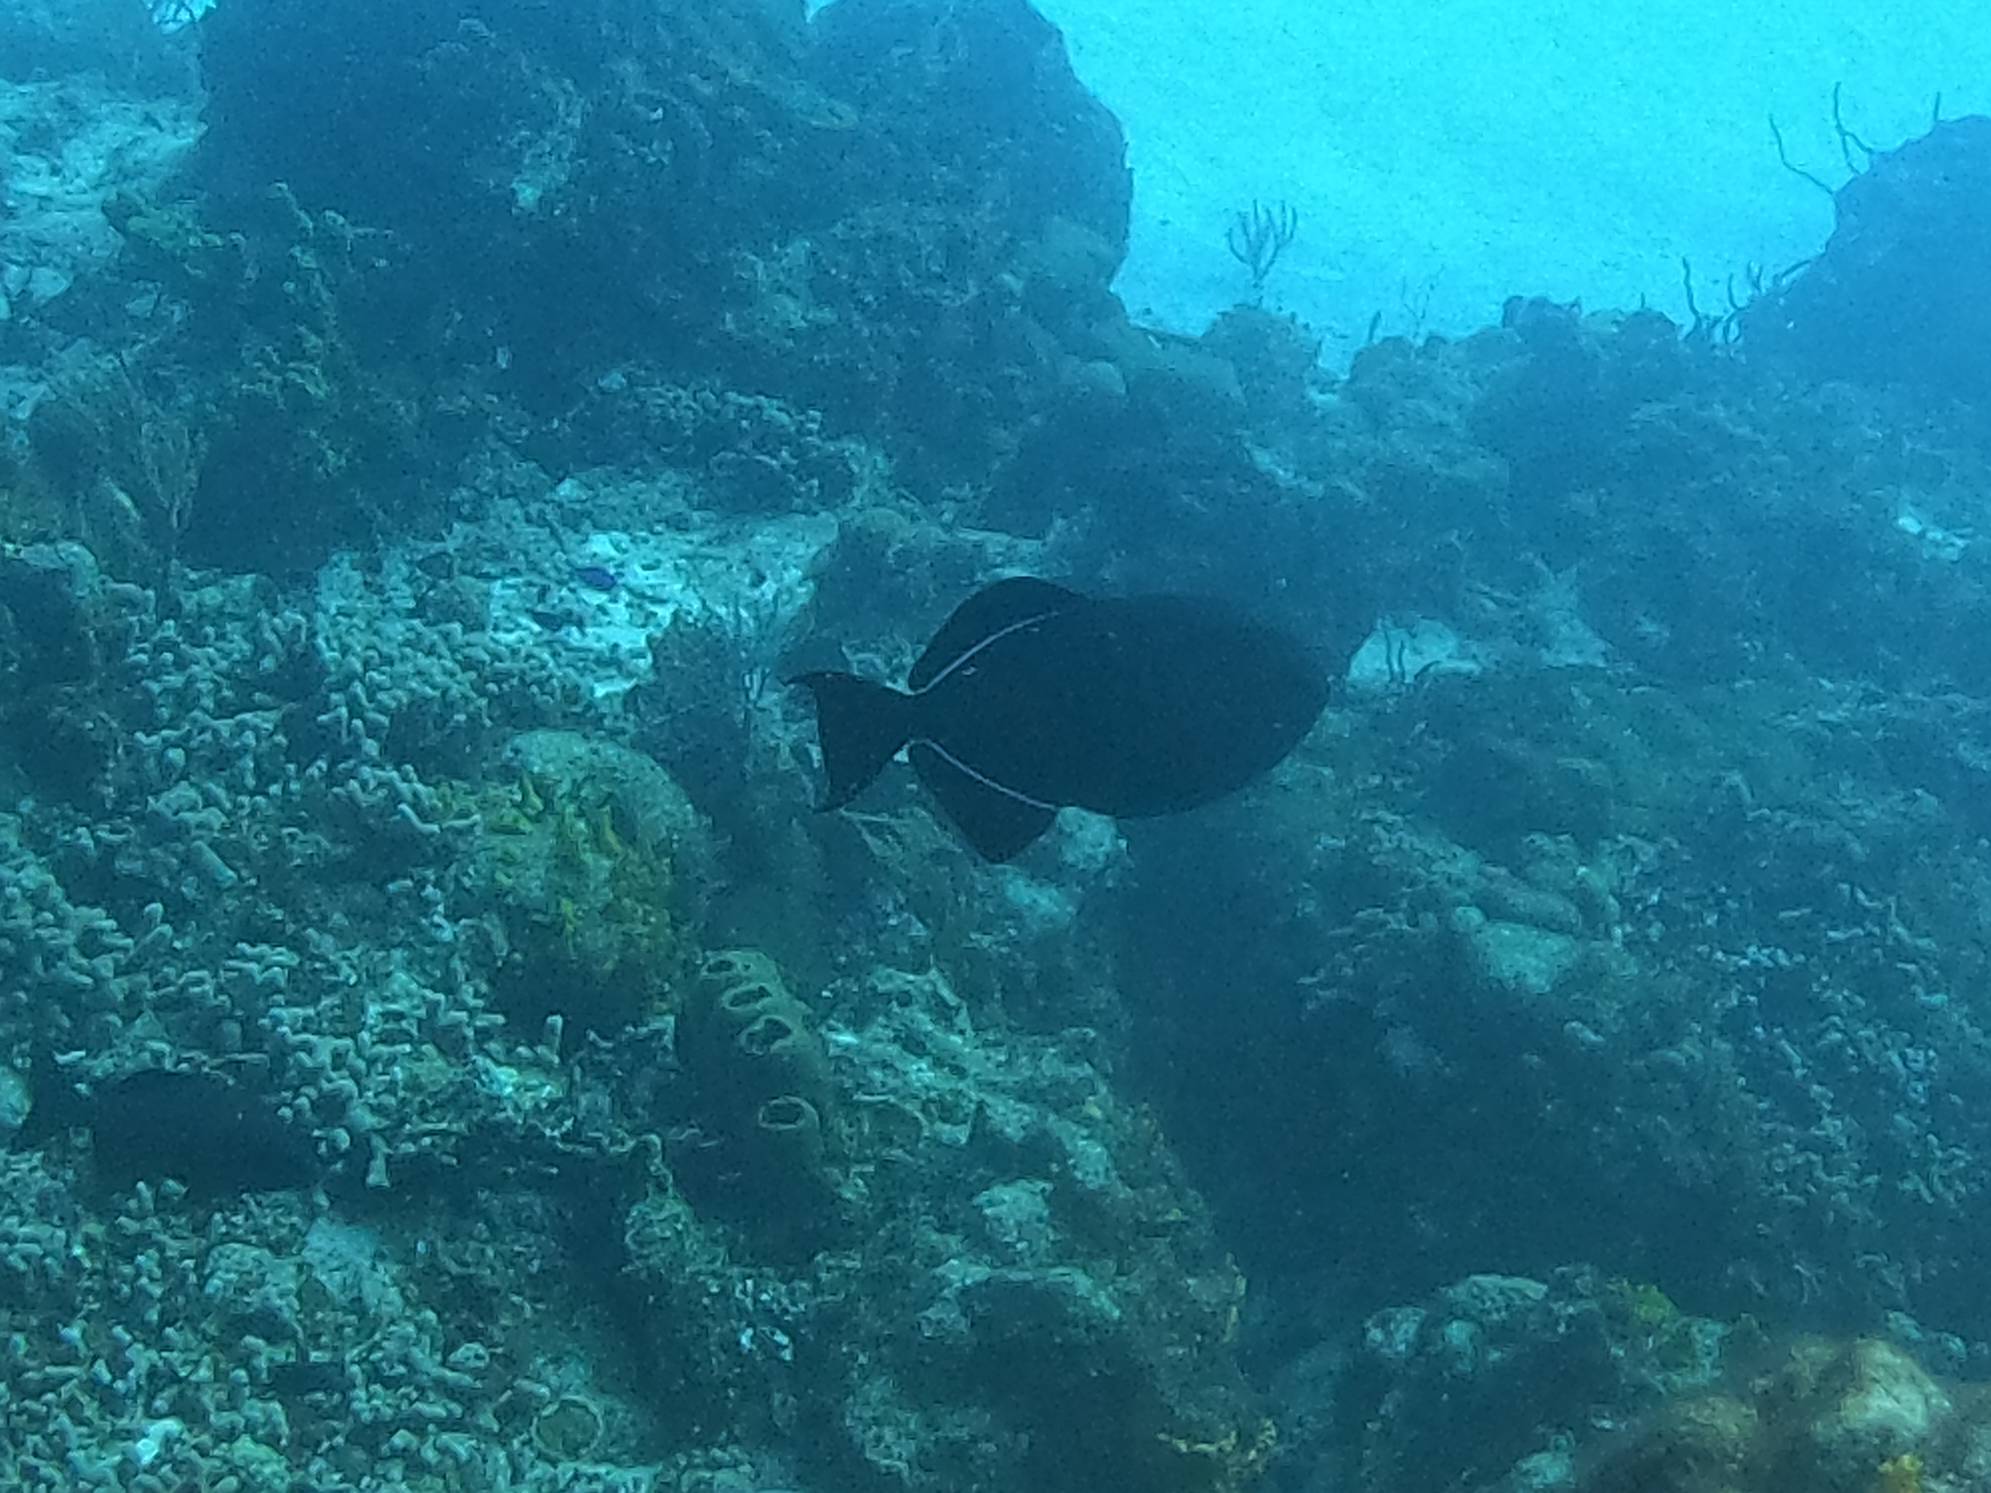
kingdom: Animalia
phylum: Chordata
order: Tetraodontiformes
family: Balistidae
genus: Melichthys
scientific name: Melichthys niger
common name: Black durgon
